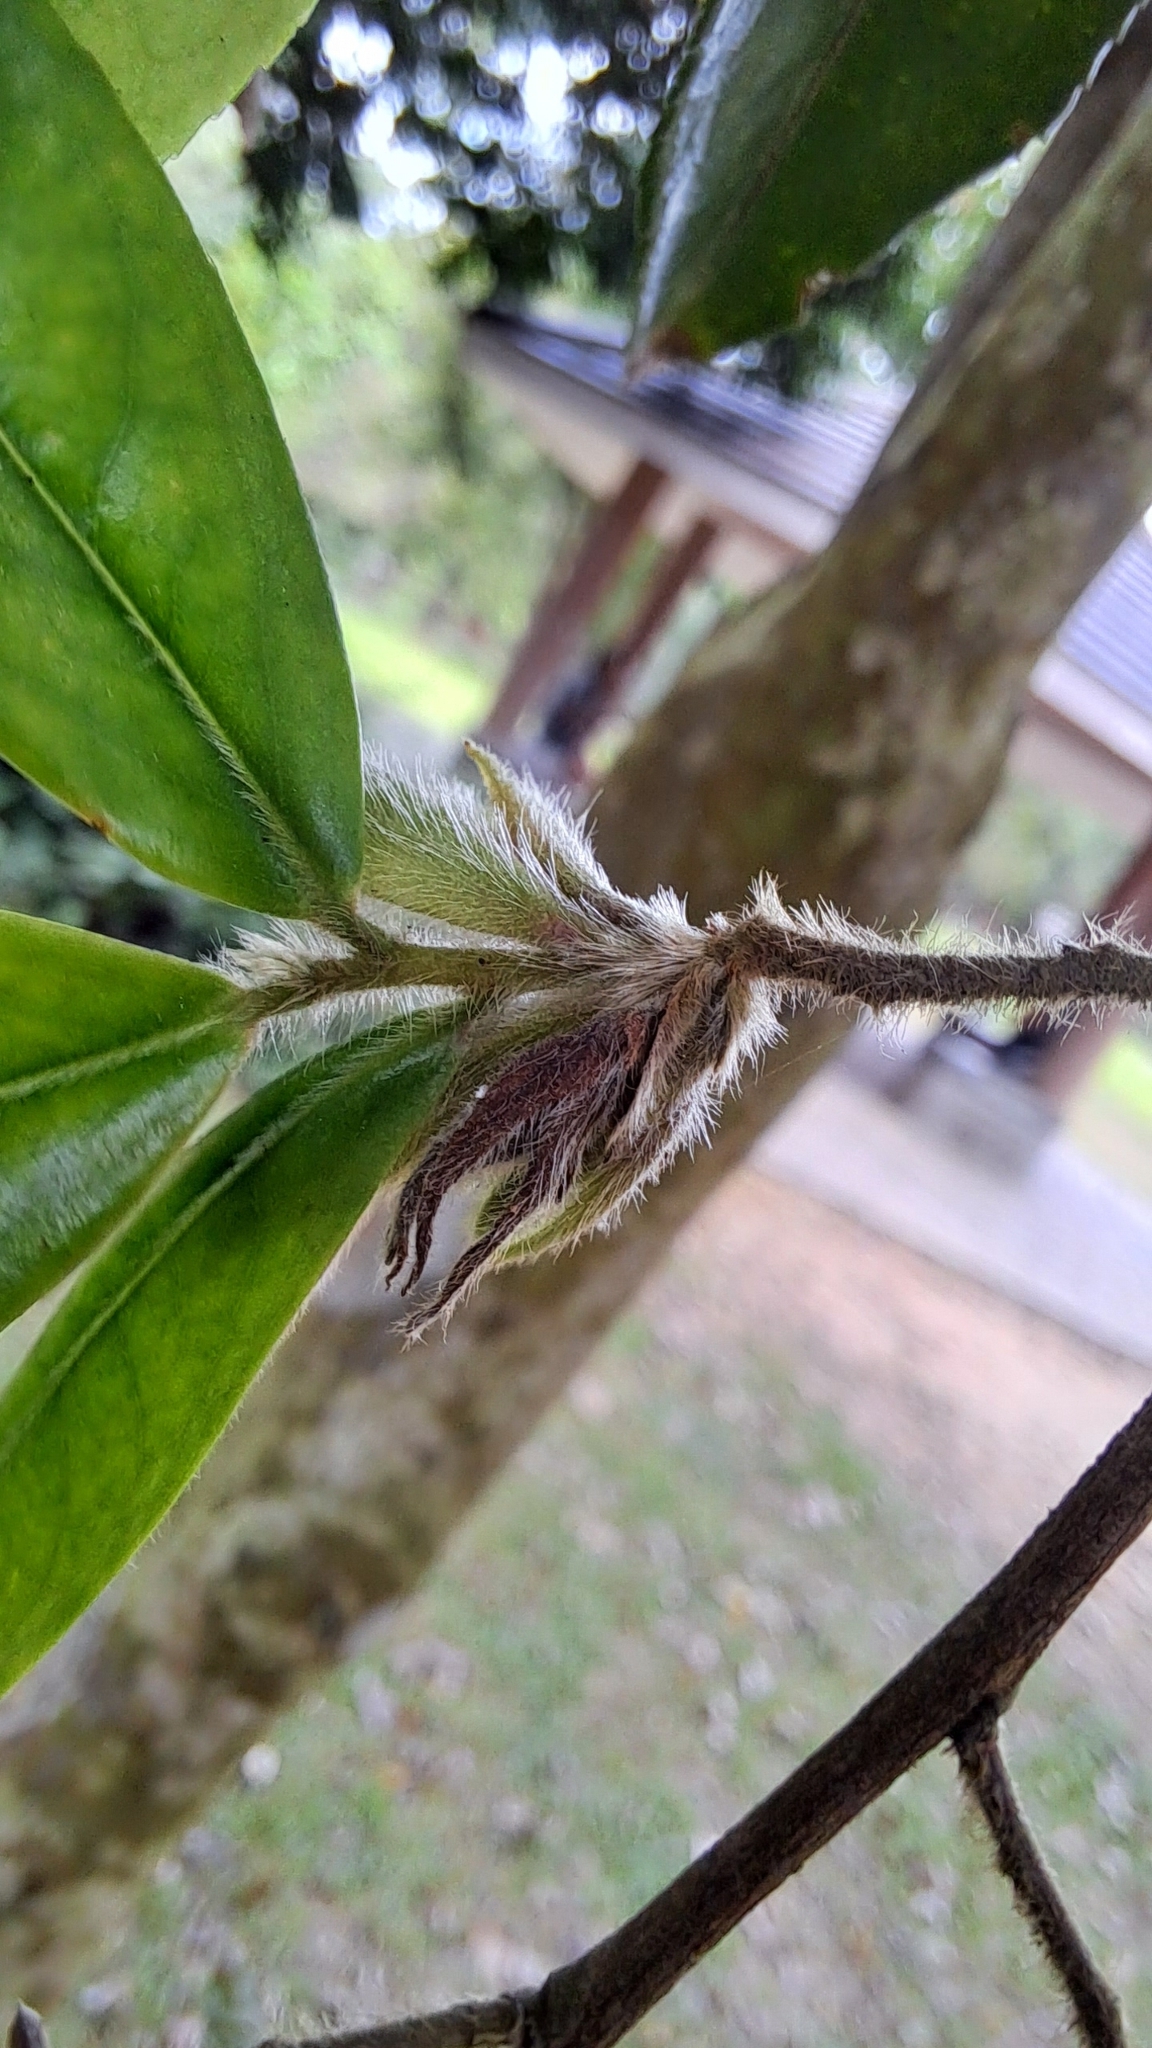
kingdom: Plantae
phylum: Tracheophyta
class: Magnoliopsida
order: Ericales
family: Theaceae
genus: Camellia
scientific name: Camellia salicifolia
